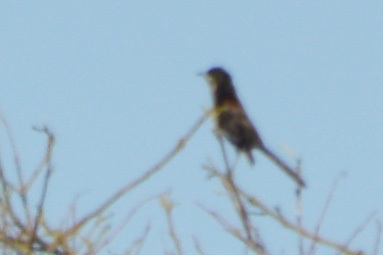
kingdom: Animalia
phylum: Chordata
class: Aves
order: Passeriformes
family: Icteridae
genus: Icterus
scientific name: Icterus cayanensis
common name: Epaulet oriole
